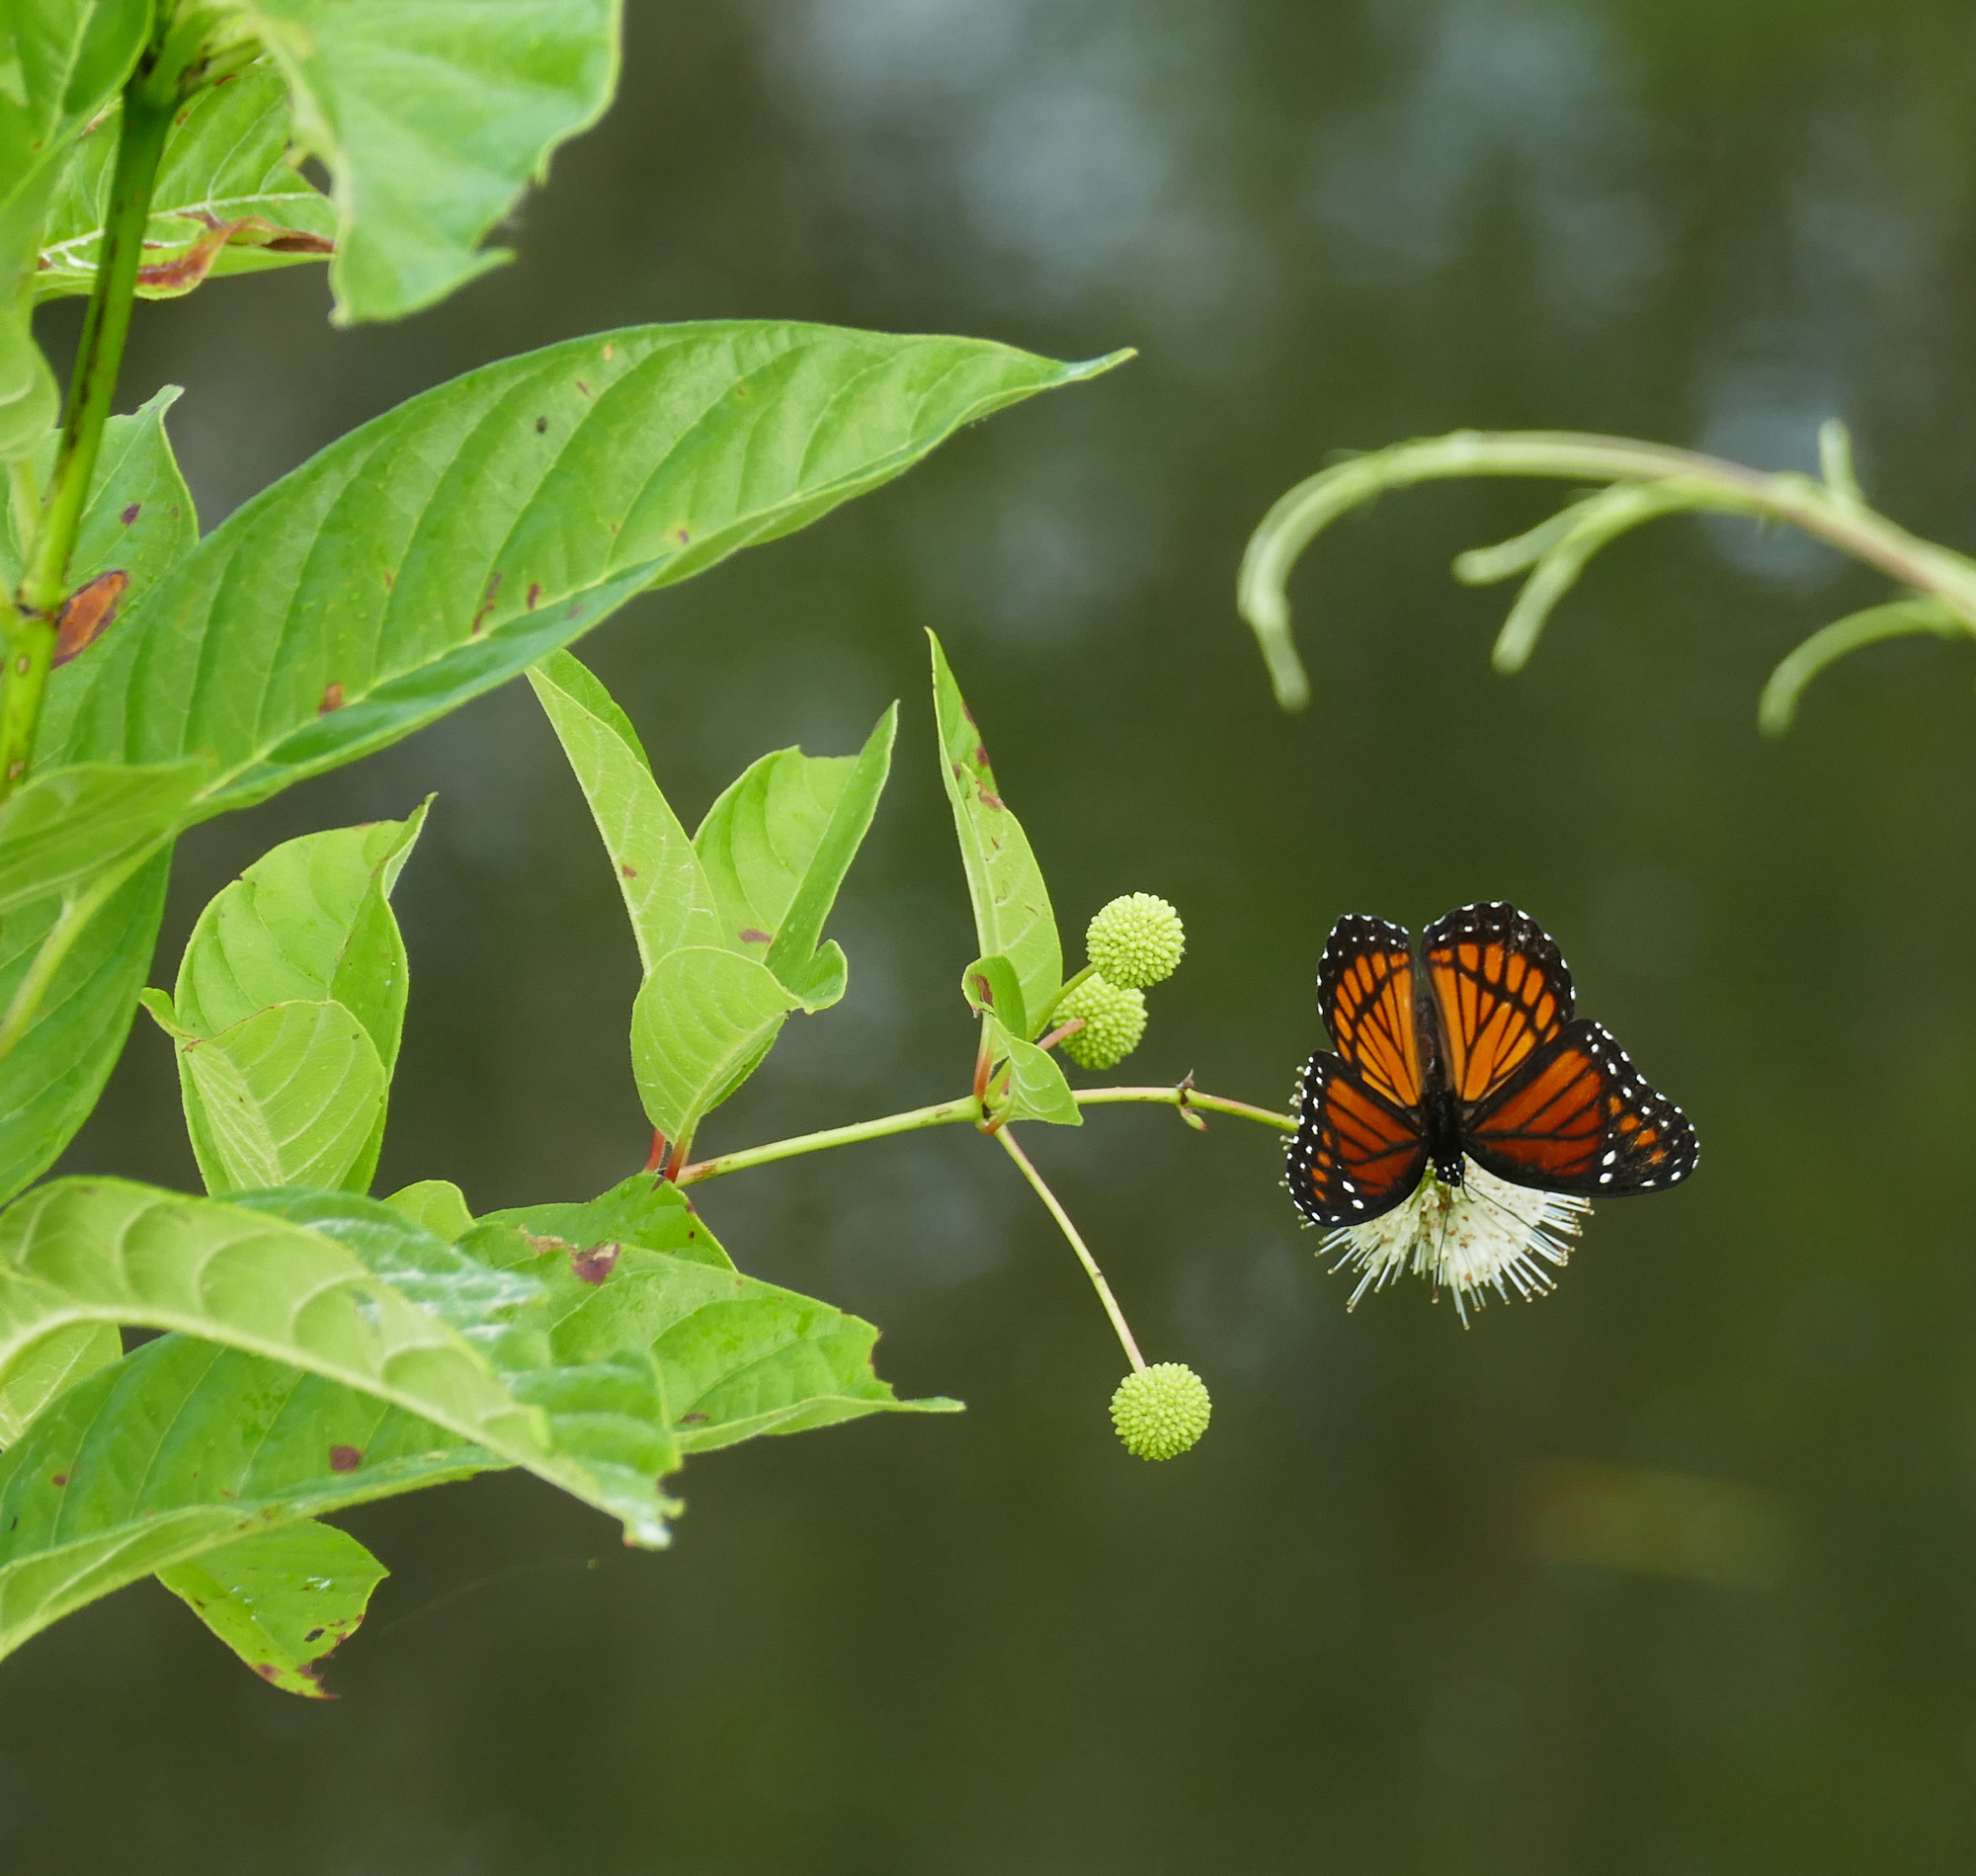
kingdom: Animalia
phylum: Arthropoda
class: Insecta
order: Lepidoptera
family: Nymphalidae
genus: Limenitis
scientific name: Limenitis archippus
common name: Viceroy
